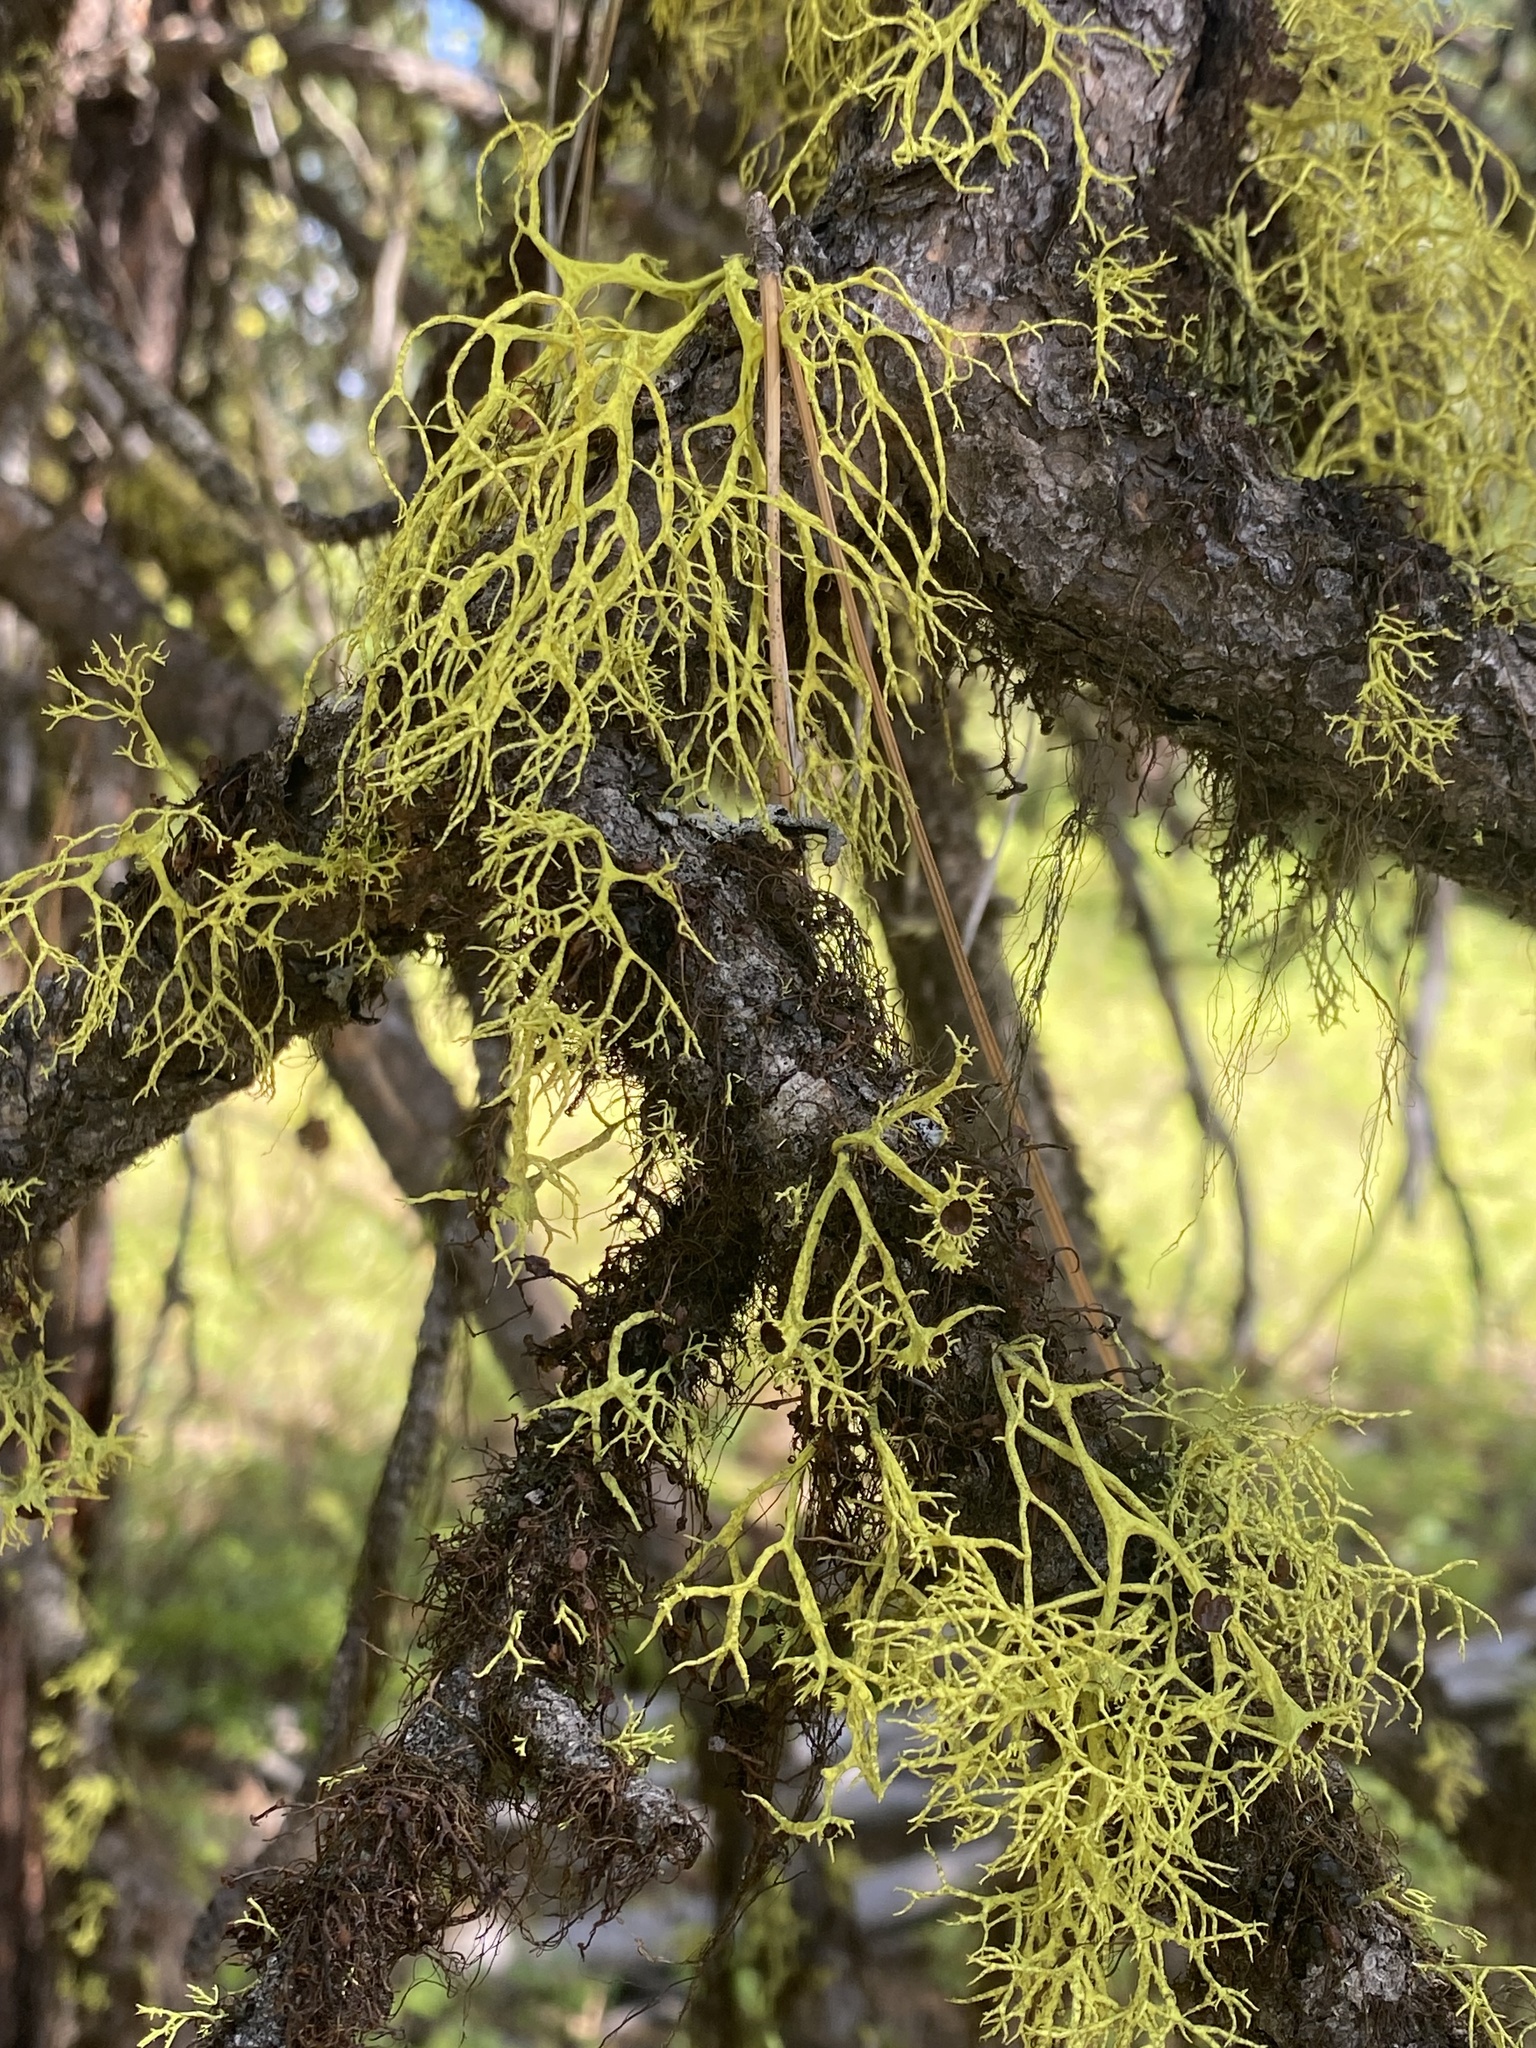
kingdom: Fungi
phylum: Ascomycota
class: Lecanoromycetes
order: Lecanorales
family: Parmeliaceae
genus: Letharia
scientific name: Letharia vulpina
